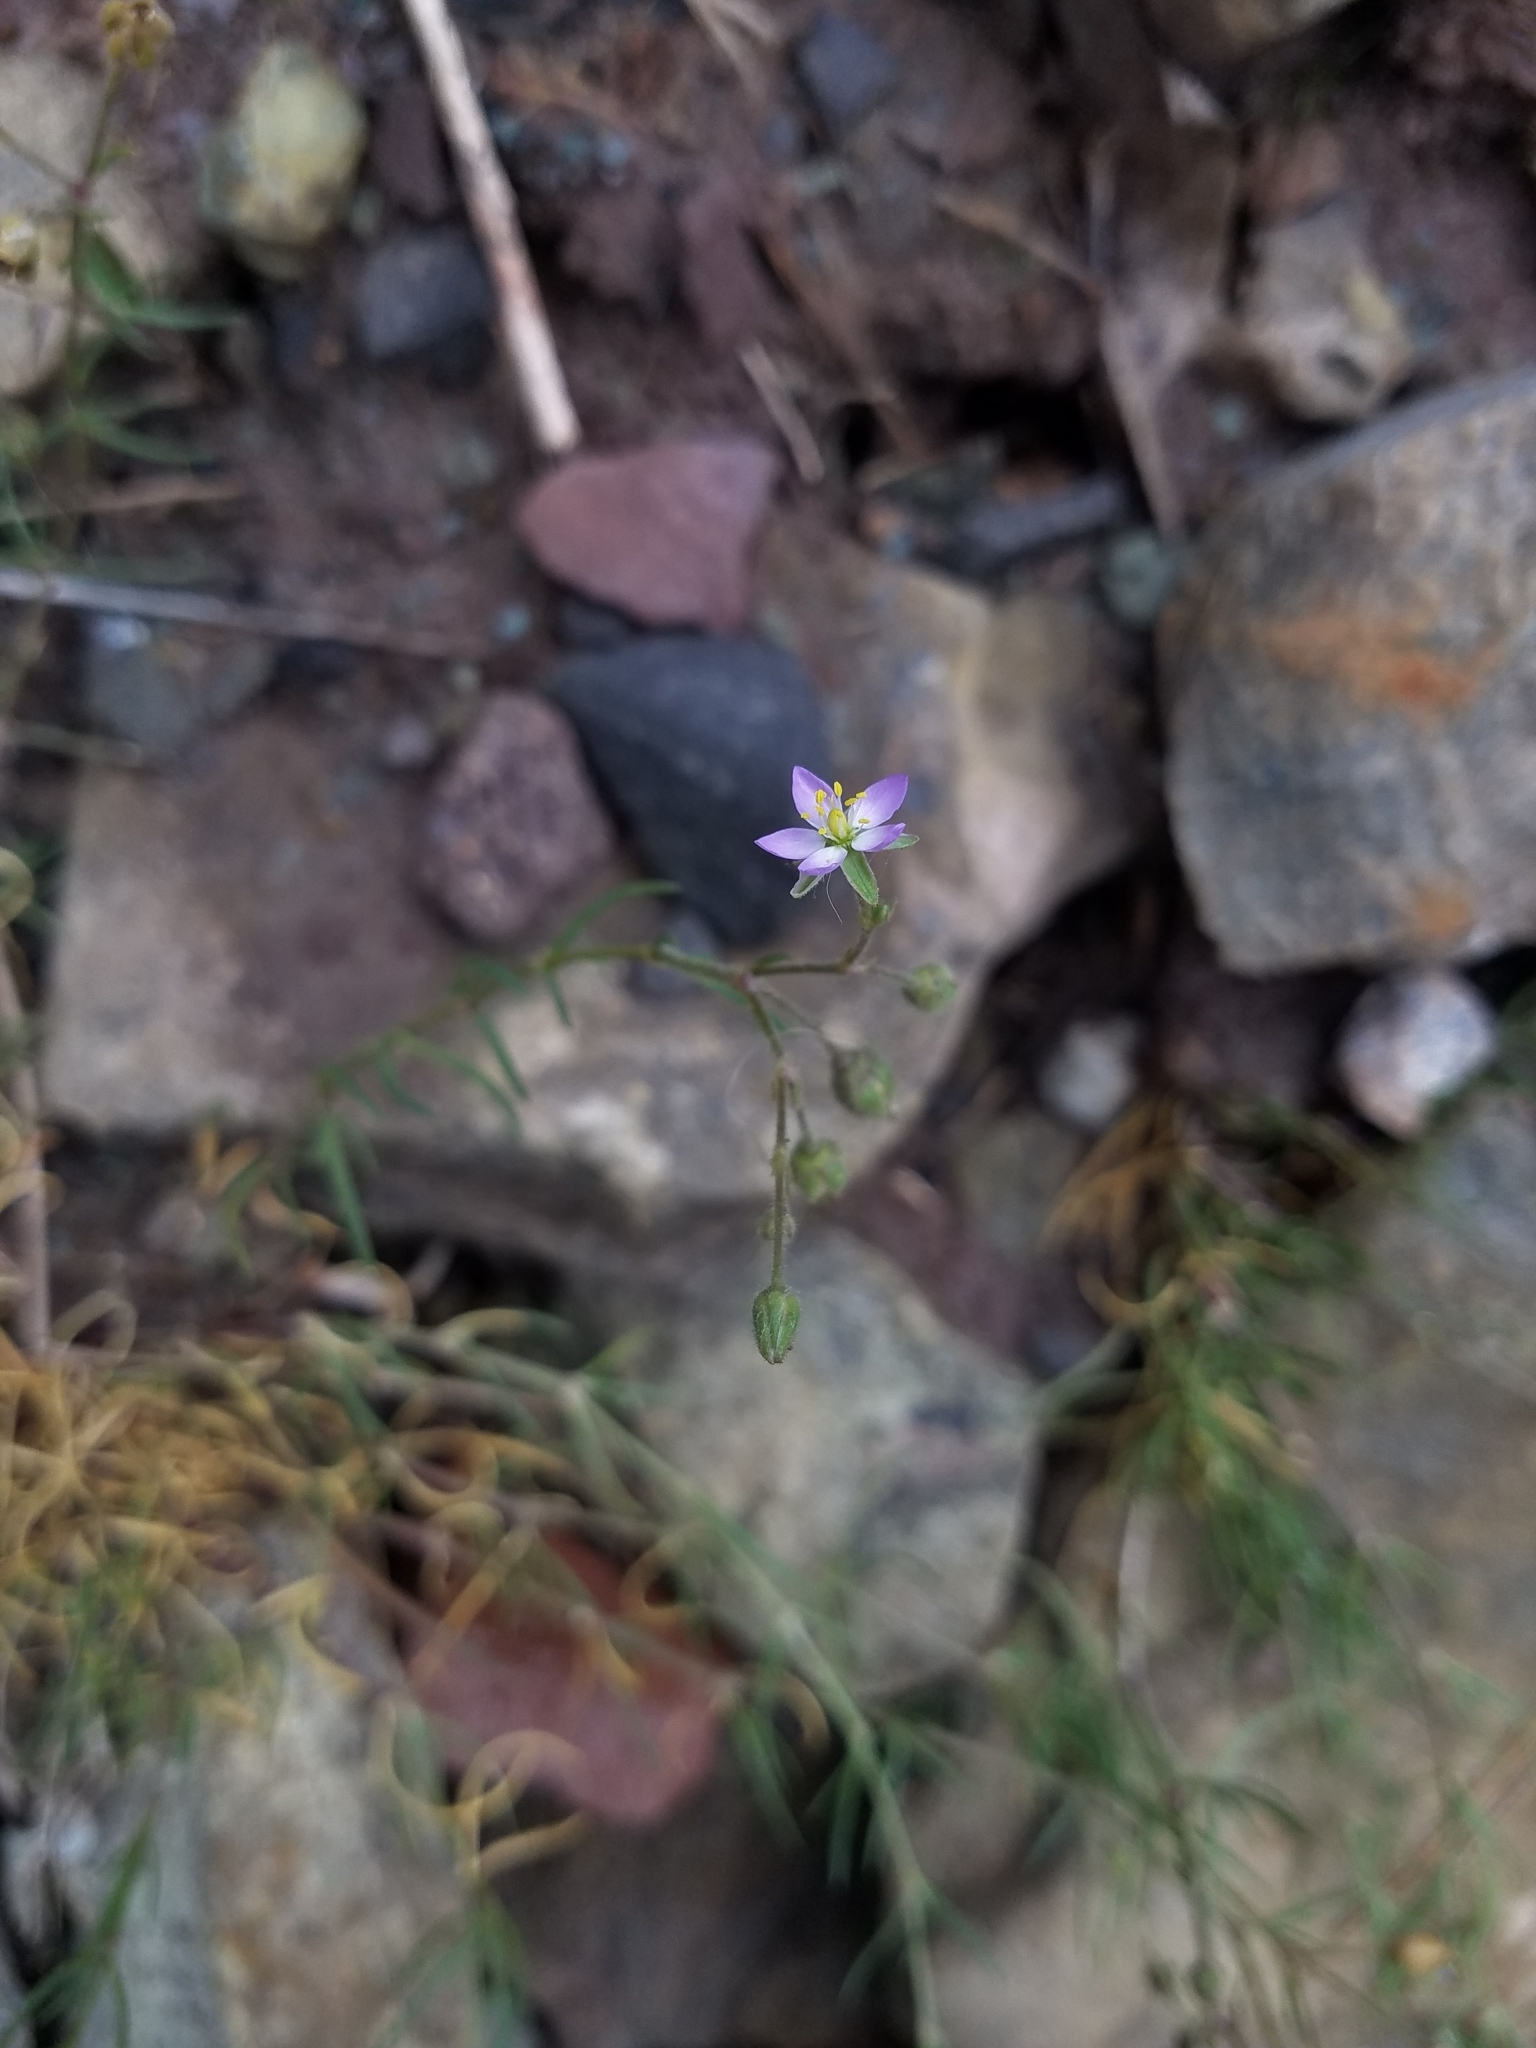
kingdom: Plantae
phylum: Tracheophyta
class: Magnoliopsida
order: Caryophyllales
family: Caryophyllaceae
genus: Spergularia
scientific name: Spergularia media
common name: Greater sea-spurrey
